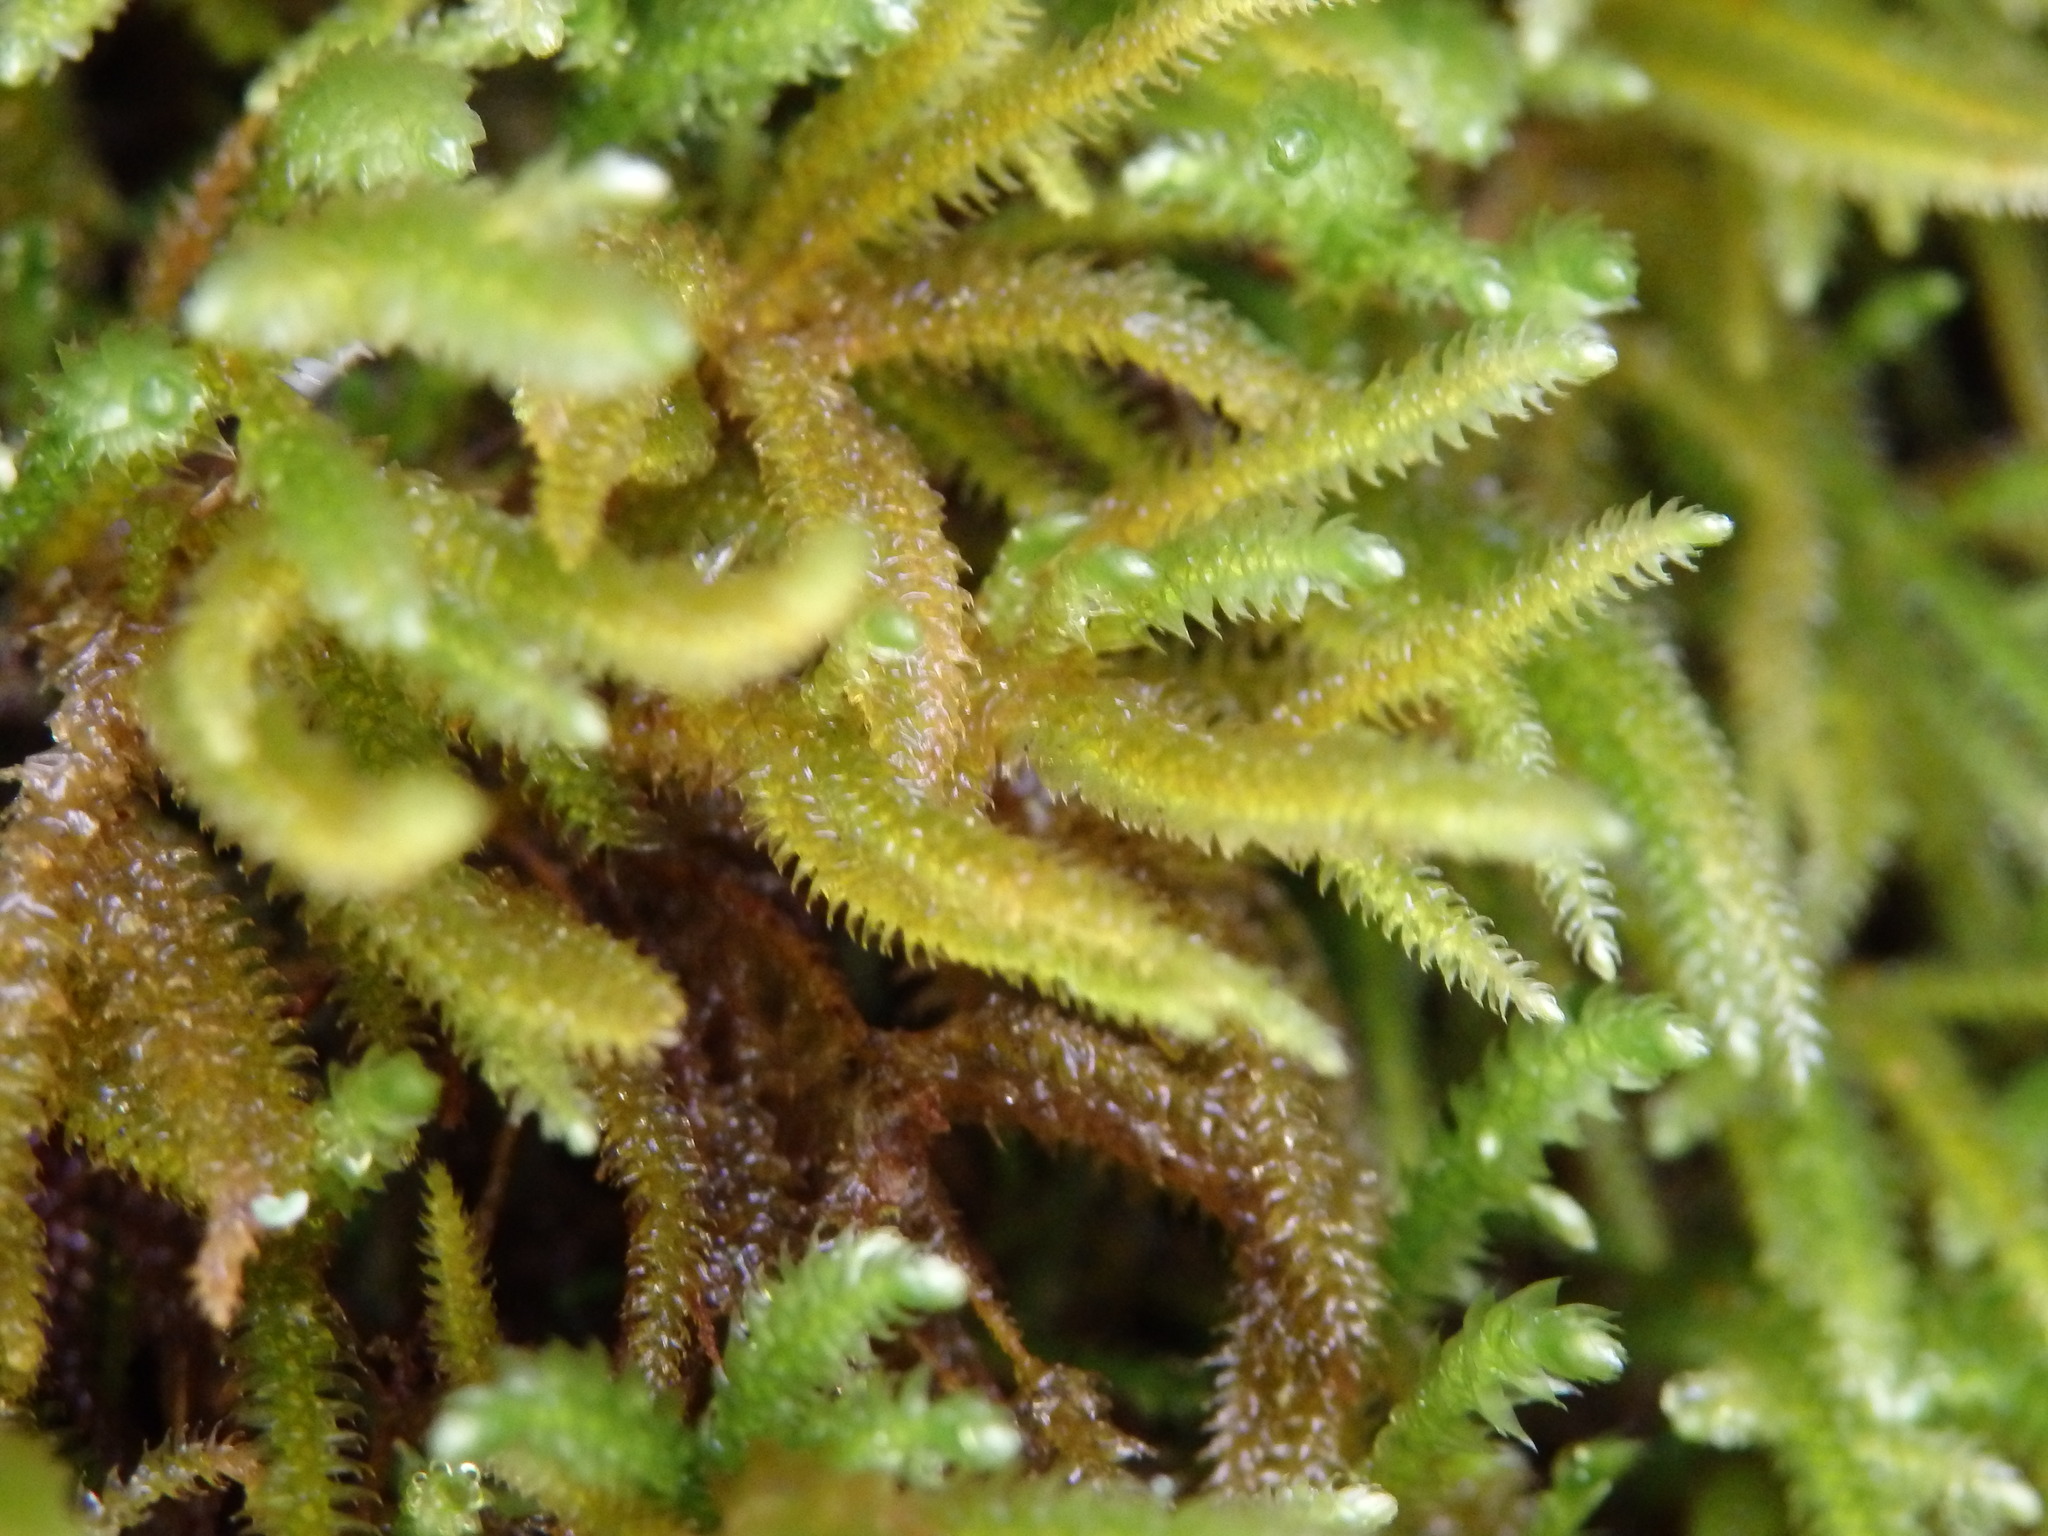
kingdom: Plantae
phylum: Bryophyta
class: Bryopsida
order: Hypnales
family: Lembophyllaceae
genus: Nogopterium
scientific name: Nogopterium gracile
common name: Bird's-foot wing-moss
